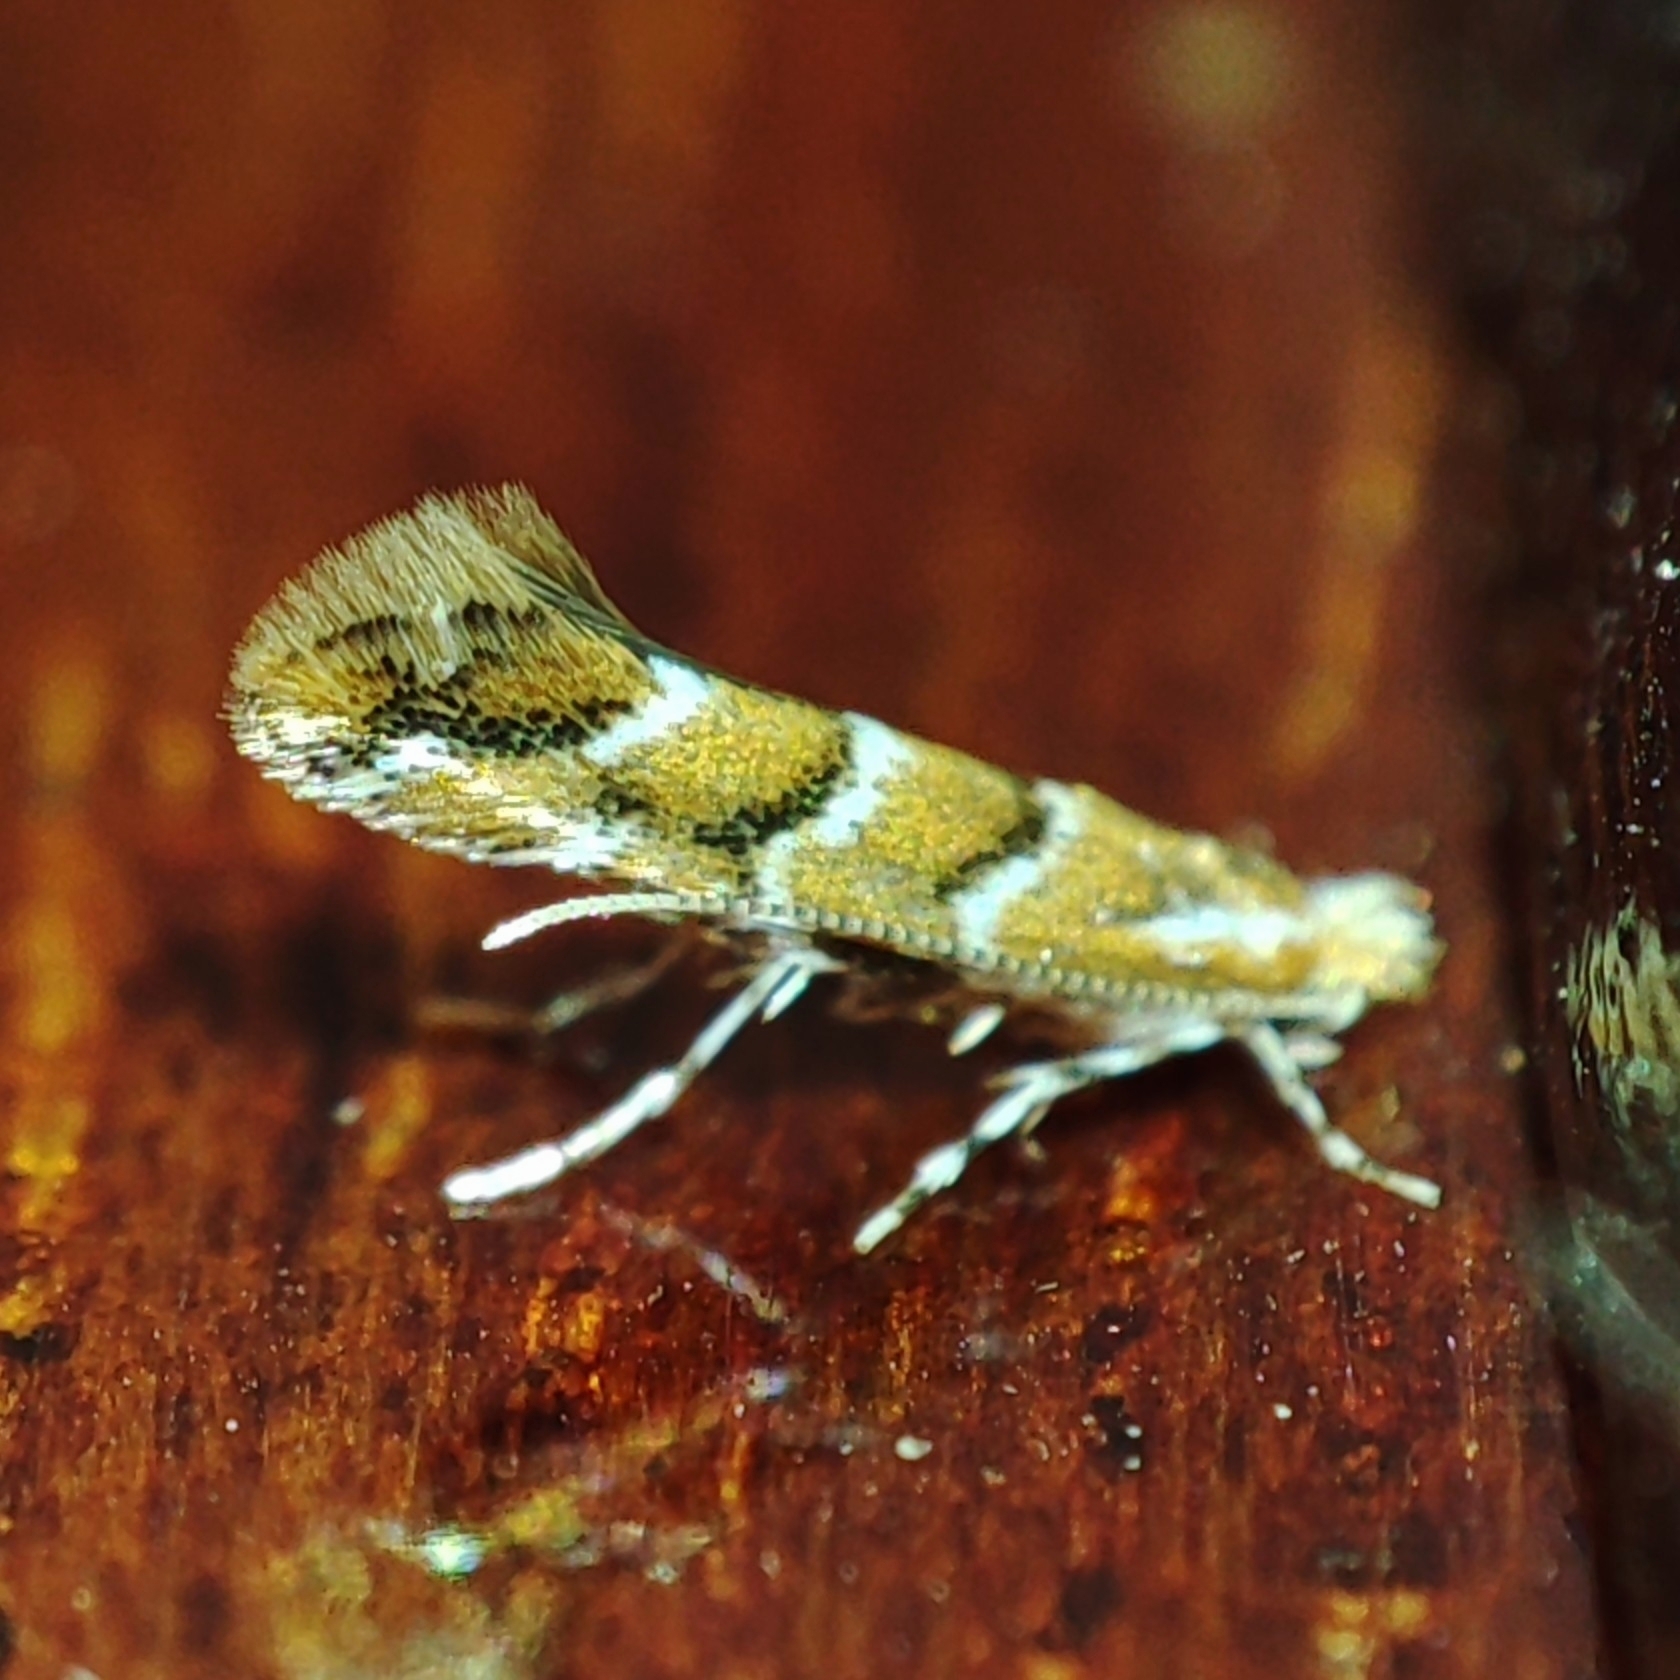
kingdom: Animalia
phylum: Arthropoda
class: Insecta
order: Lepidoptera
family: Gracillariidae
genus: Cameraria
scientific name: Cameraria ohridella
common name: Horse-chestnut leaf-miner
